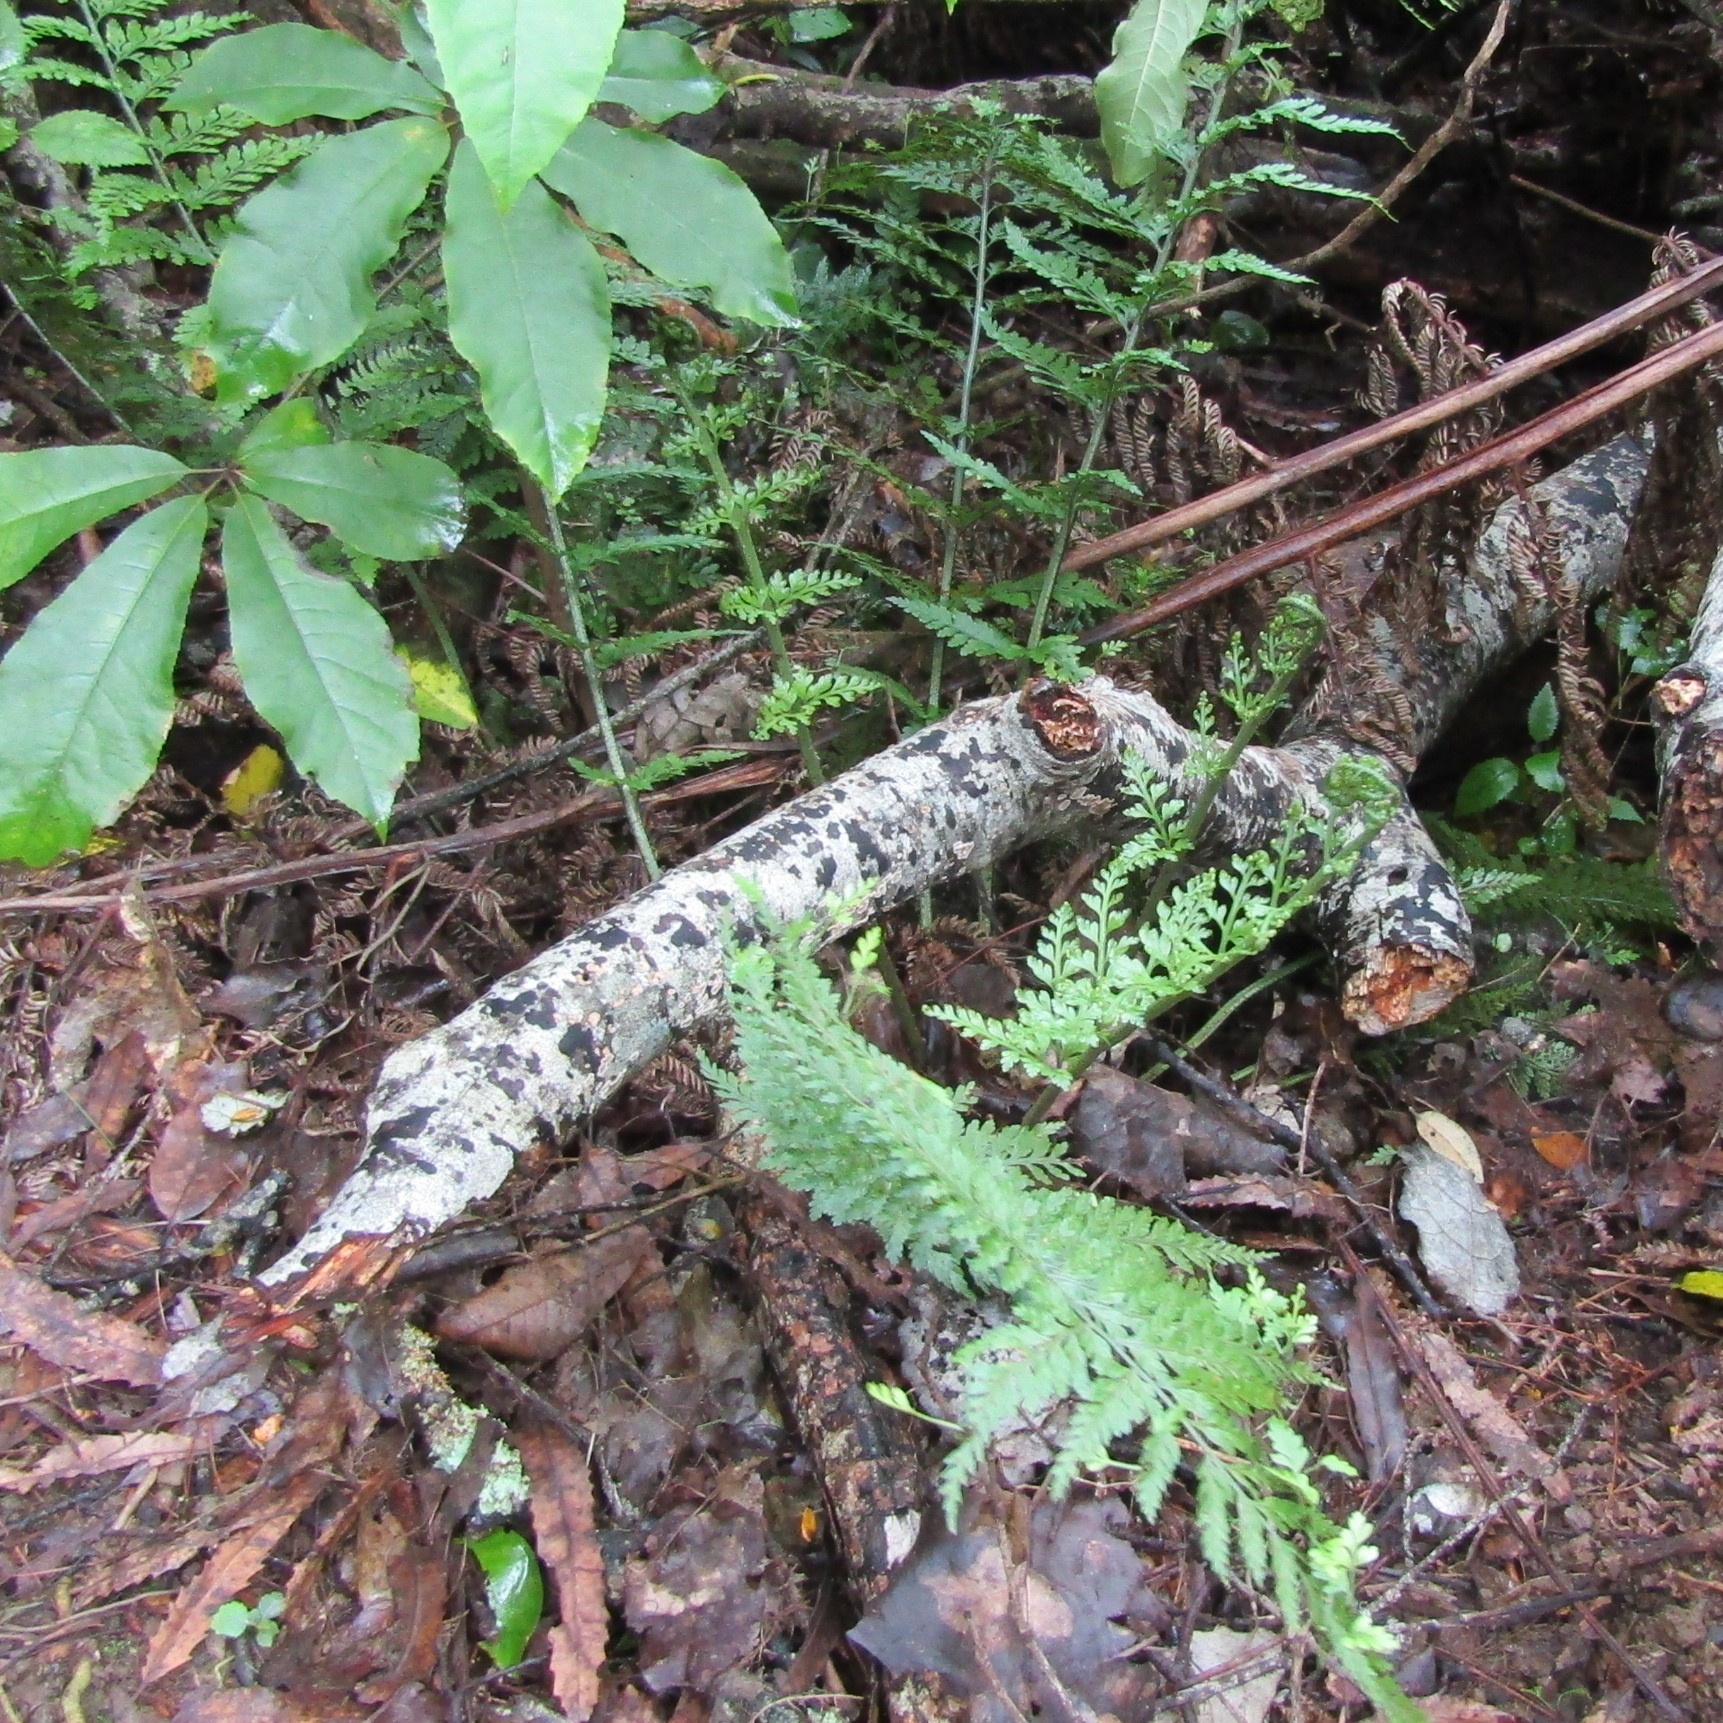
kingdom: Plantae
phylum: Tracheophyta
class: Polypodiopsida
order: Polypodiales
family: Aspleniaceae
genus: Asplenium
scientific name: Asplenium bulbiferum
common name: Mother fern
